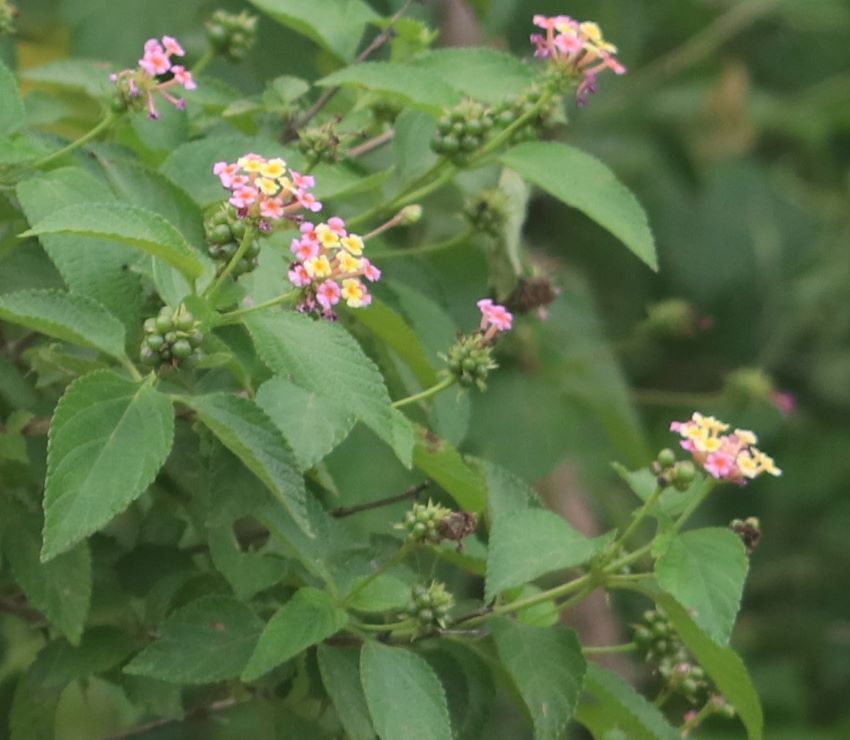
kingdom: Plantae
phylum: Tracheophyta
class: Magnoliopsida
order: Lamiales
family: Verbenaceae
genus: Lantana
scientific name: Lantana camara
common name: Lantana
